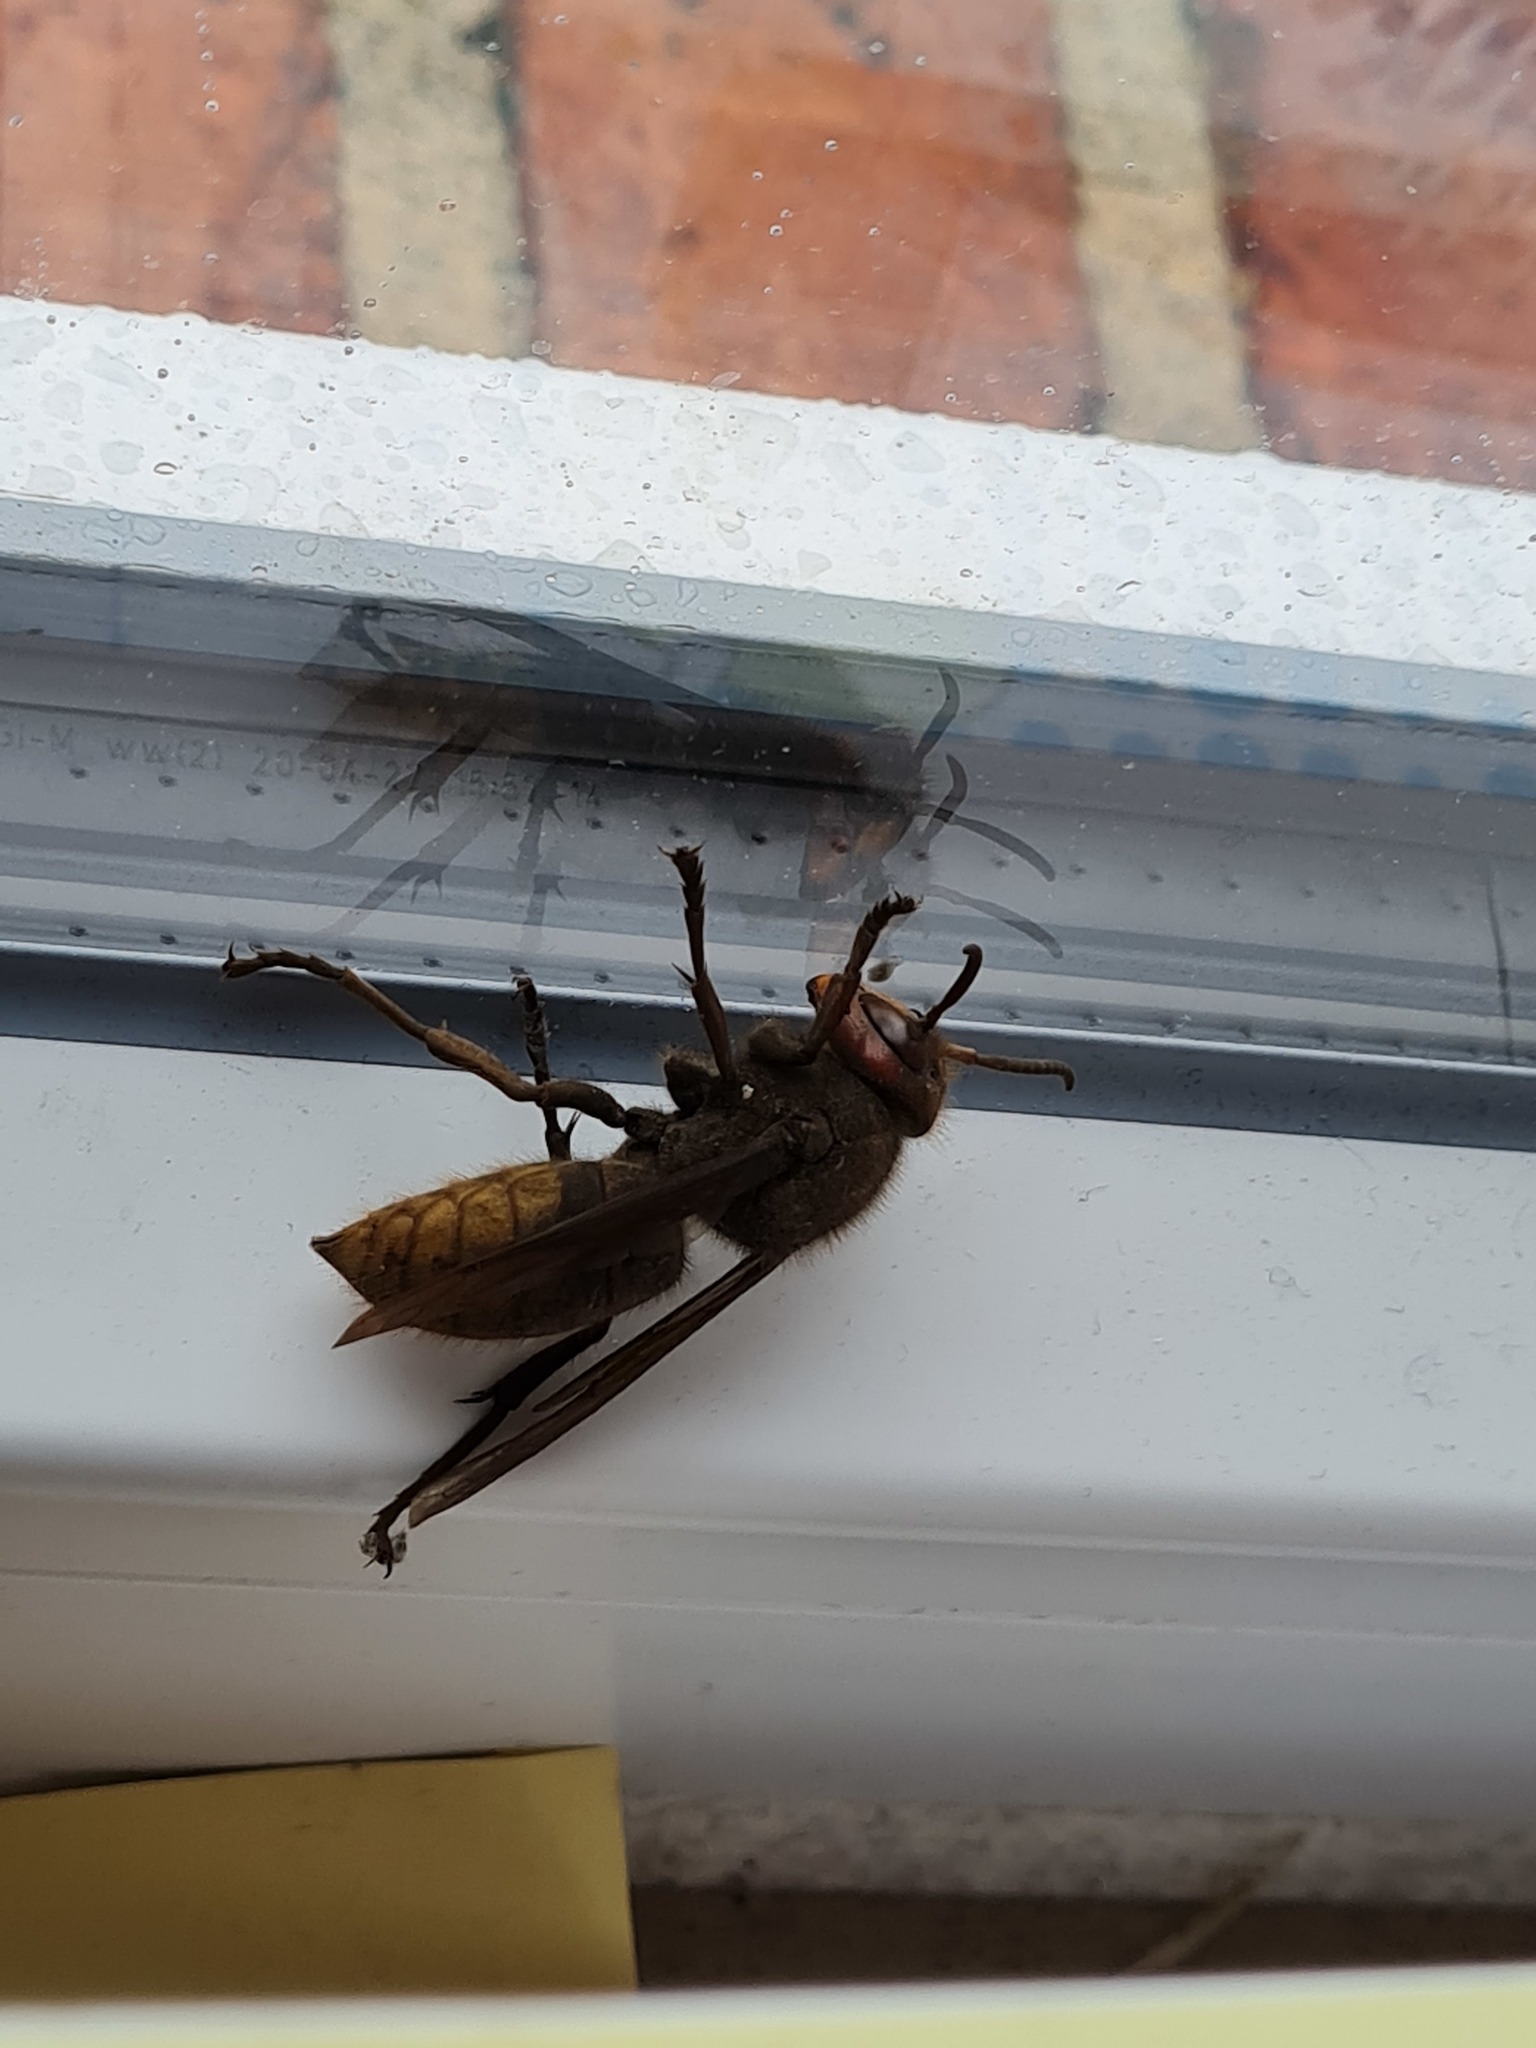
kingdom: Animalia
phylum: Arthropoda
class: Insecta
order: Hymenoptera
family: Vespidae
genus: Vespa
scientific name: Vespa crabro
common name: Hornet
